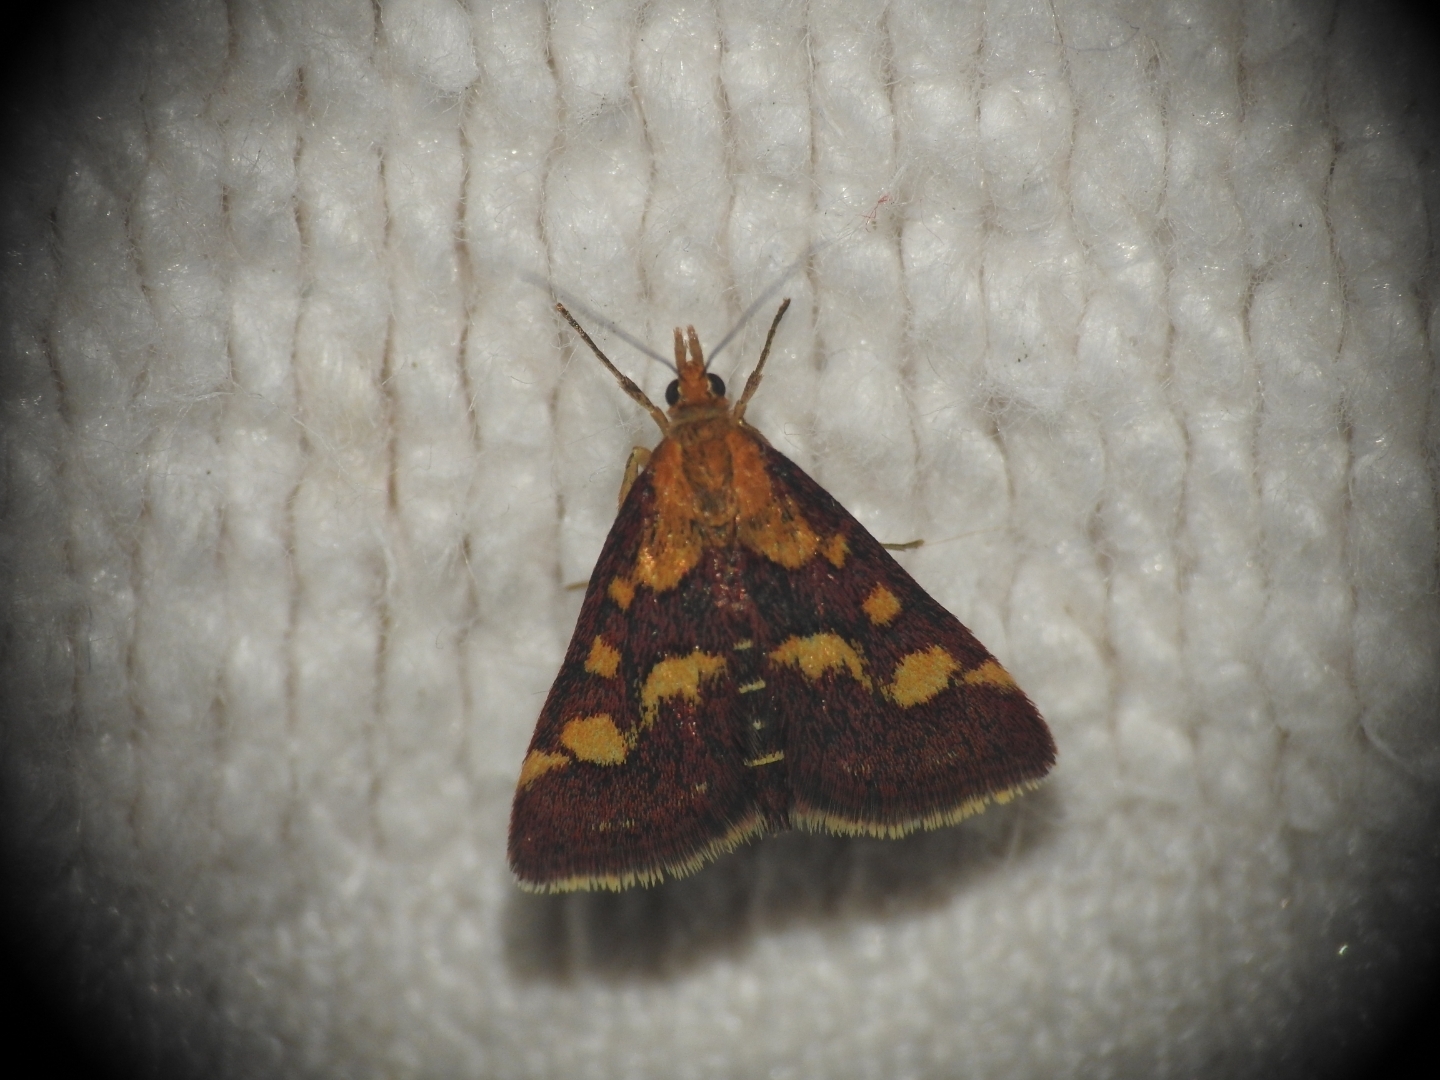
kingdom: Animalia
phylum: Arthropoda
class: Insecta
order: Lepidoptera
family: Crambidae
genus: Pyrausta
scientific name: Pyrausta purpuralis
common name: Common purple & gold
